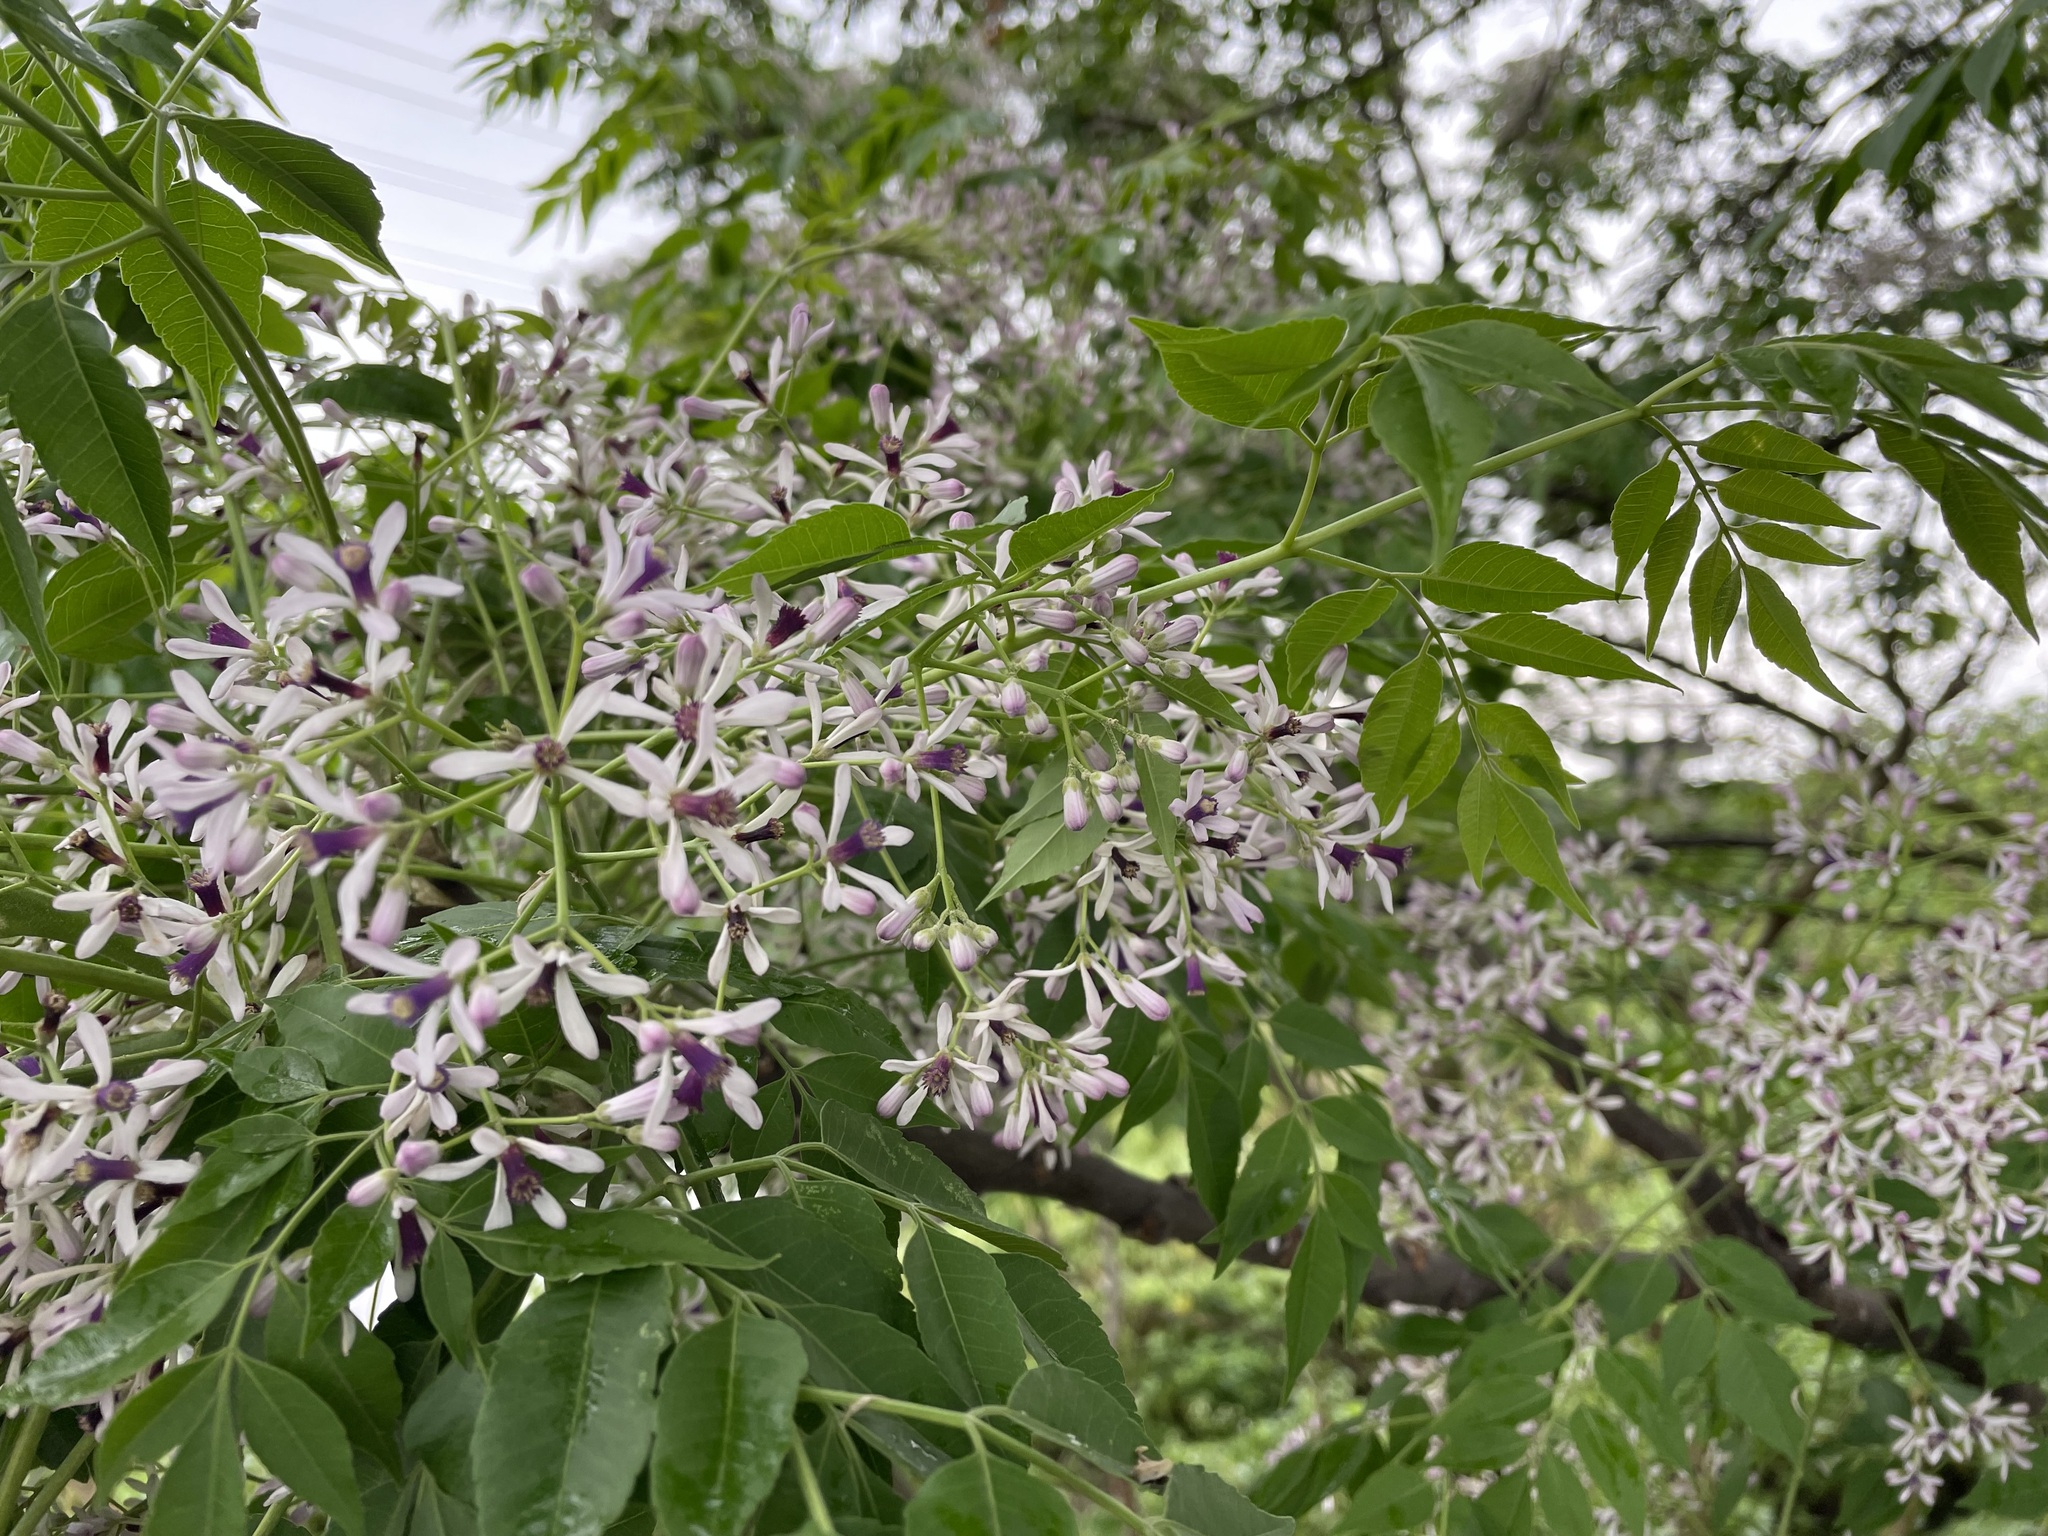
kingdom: Plantae
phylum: Tracheophyta
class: Magnoliopsida
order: Sapindales
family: Meliaceae
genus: Melia
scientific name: Melia azedarach
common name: Chinaberrytree
